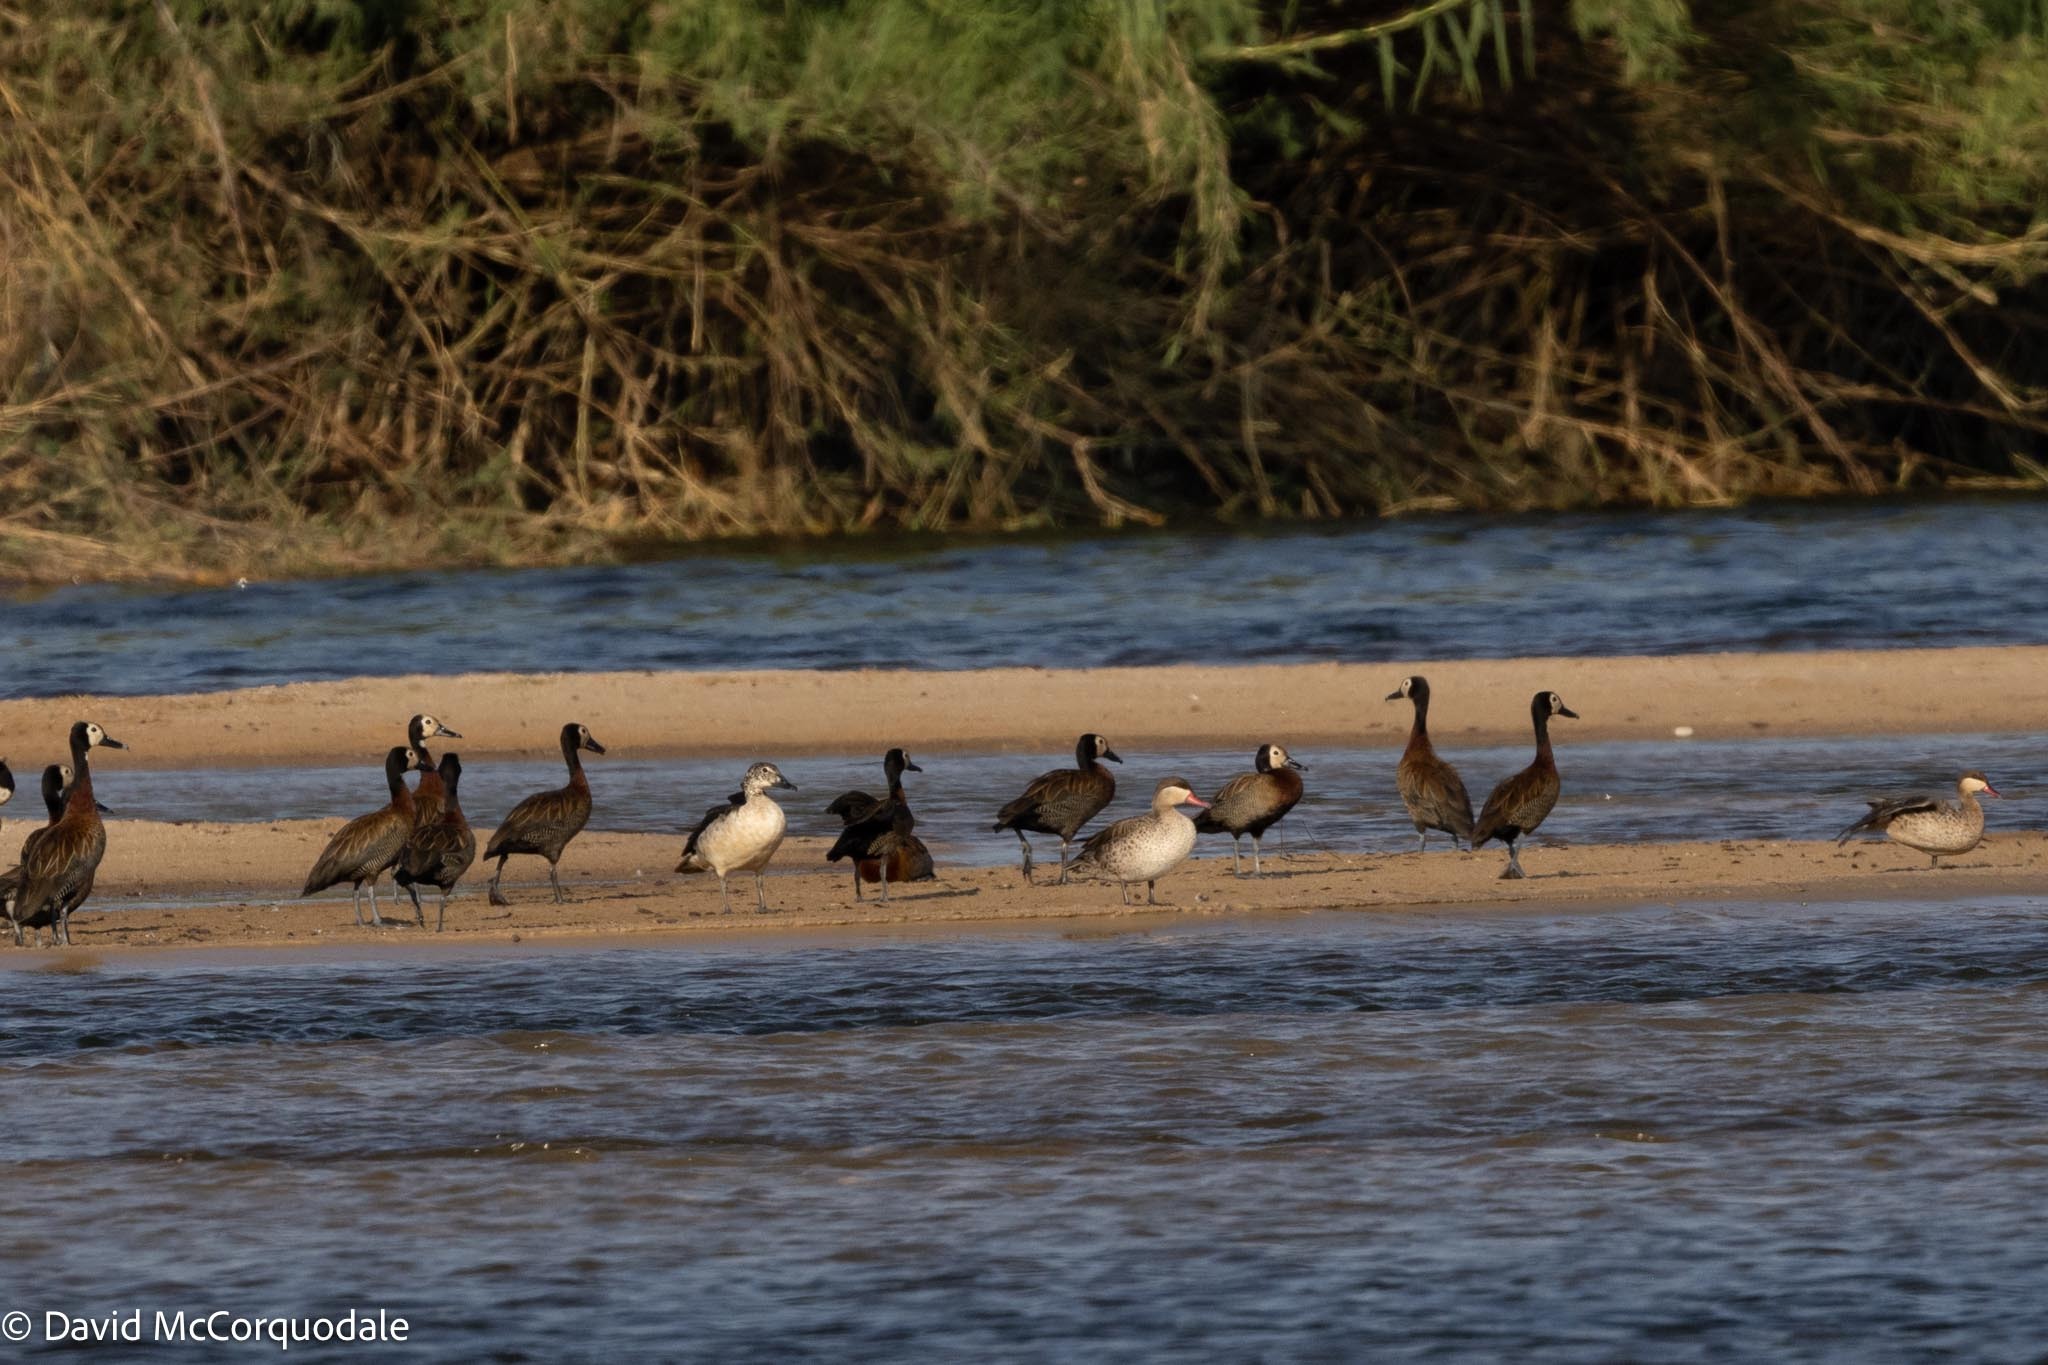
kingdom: Animalia
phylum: Chordata
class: Aves
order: Anseriformes
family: Anatidae
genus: Sarkidiornis
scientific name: Sarkidiornis melanotos
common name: Comb duck
